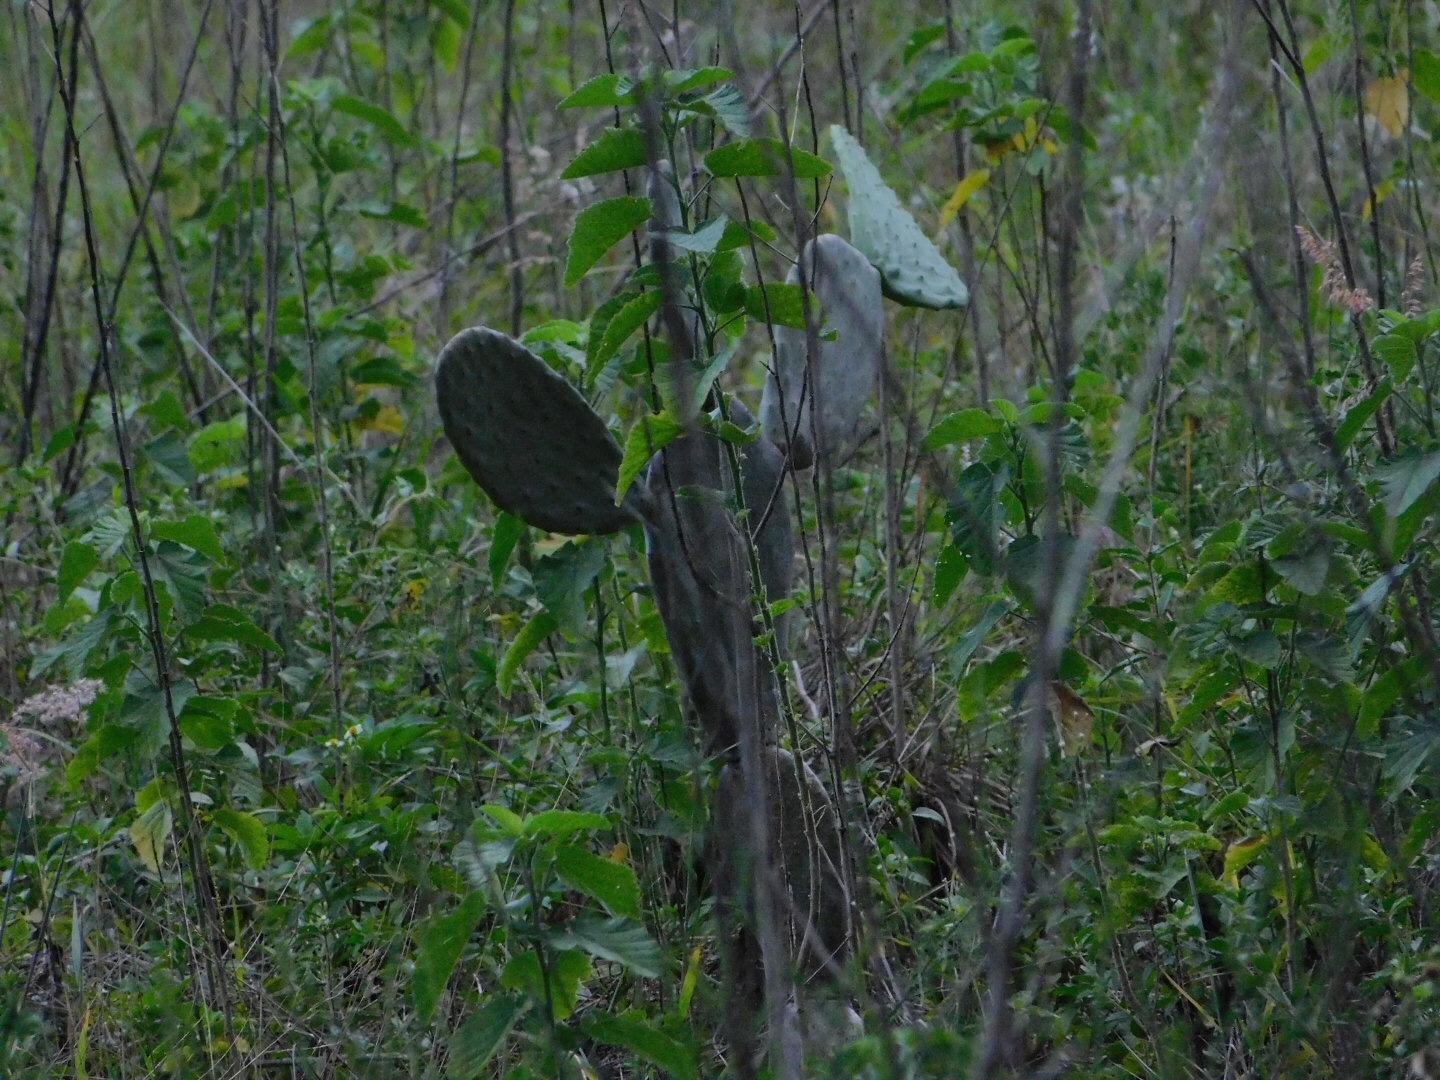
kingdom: Plantae
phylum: Tracheophyta
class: Magnoliopsida
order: Caryophyllales
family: Cactaceae
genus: Opuntia
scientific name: Opuntia ficus-indica
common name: Barbary fig
